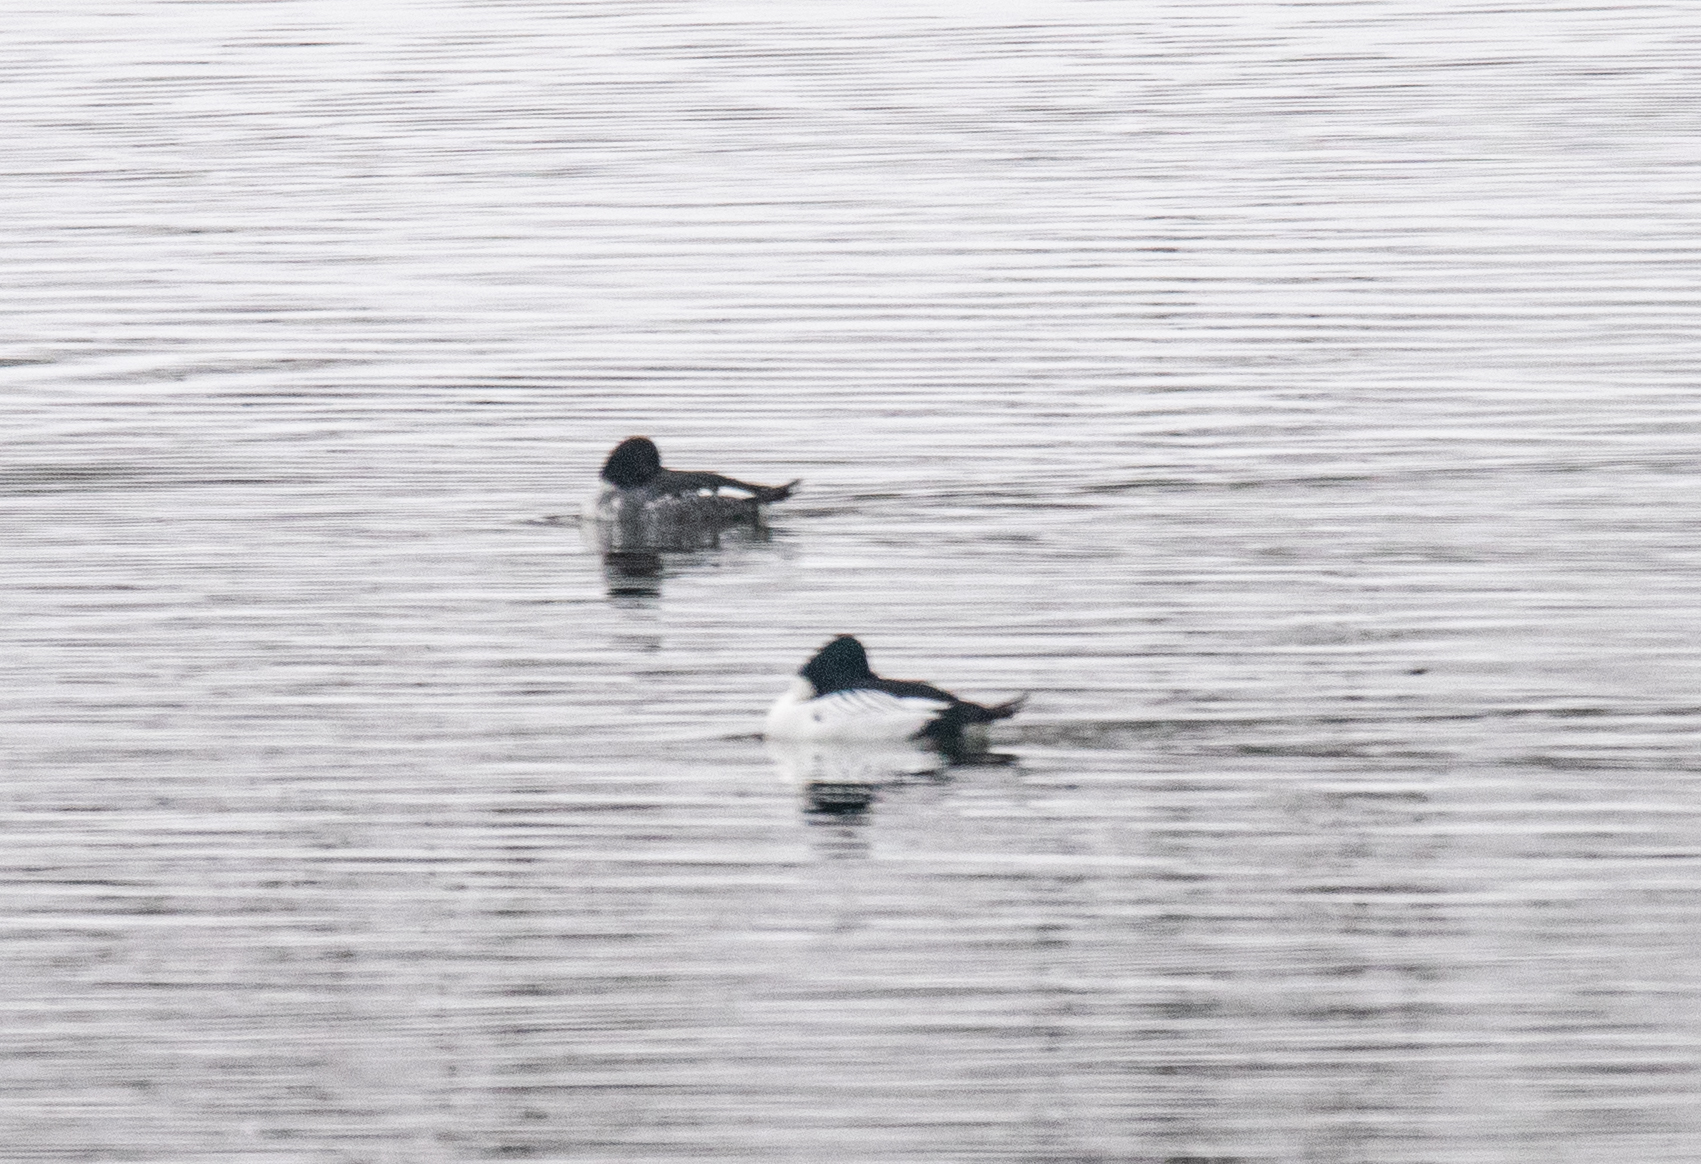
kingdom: Animalia
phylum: Chordata
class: Aves
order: Anseriformes
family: Anatidae
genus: Bucephala
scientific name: Bucephala clangula
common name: Common goldeneye
